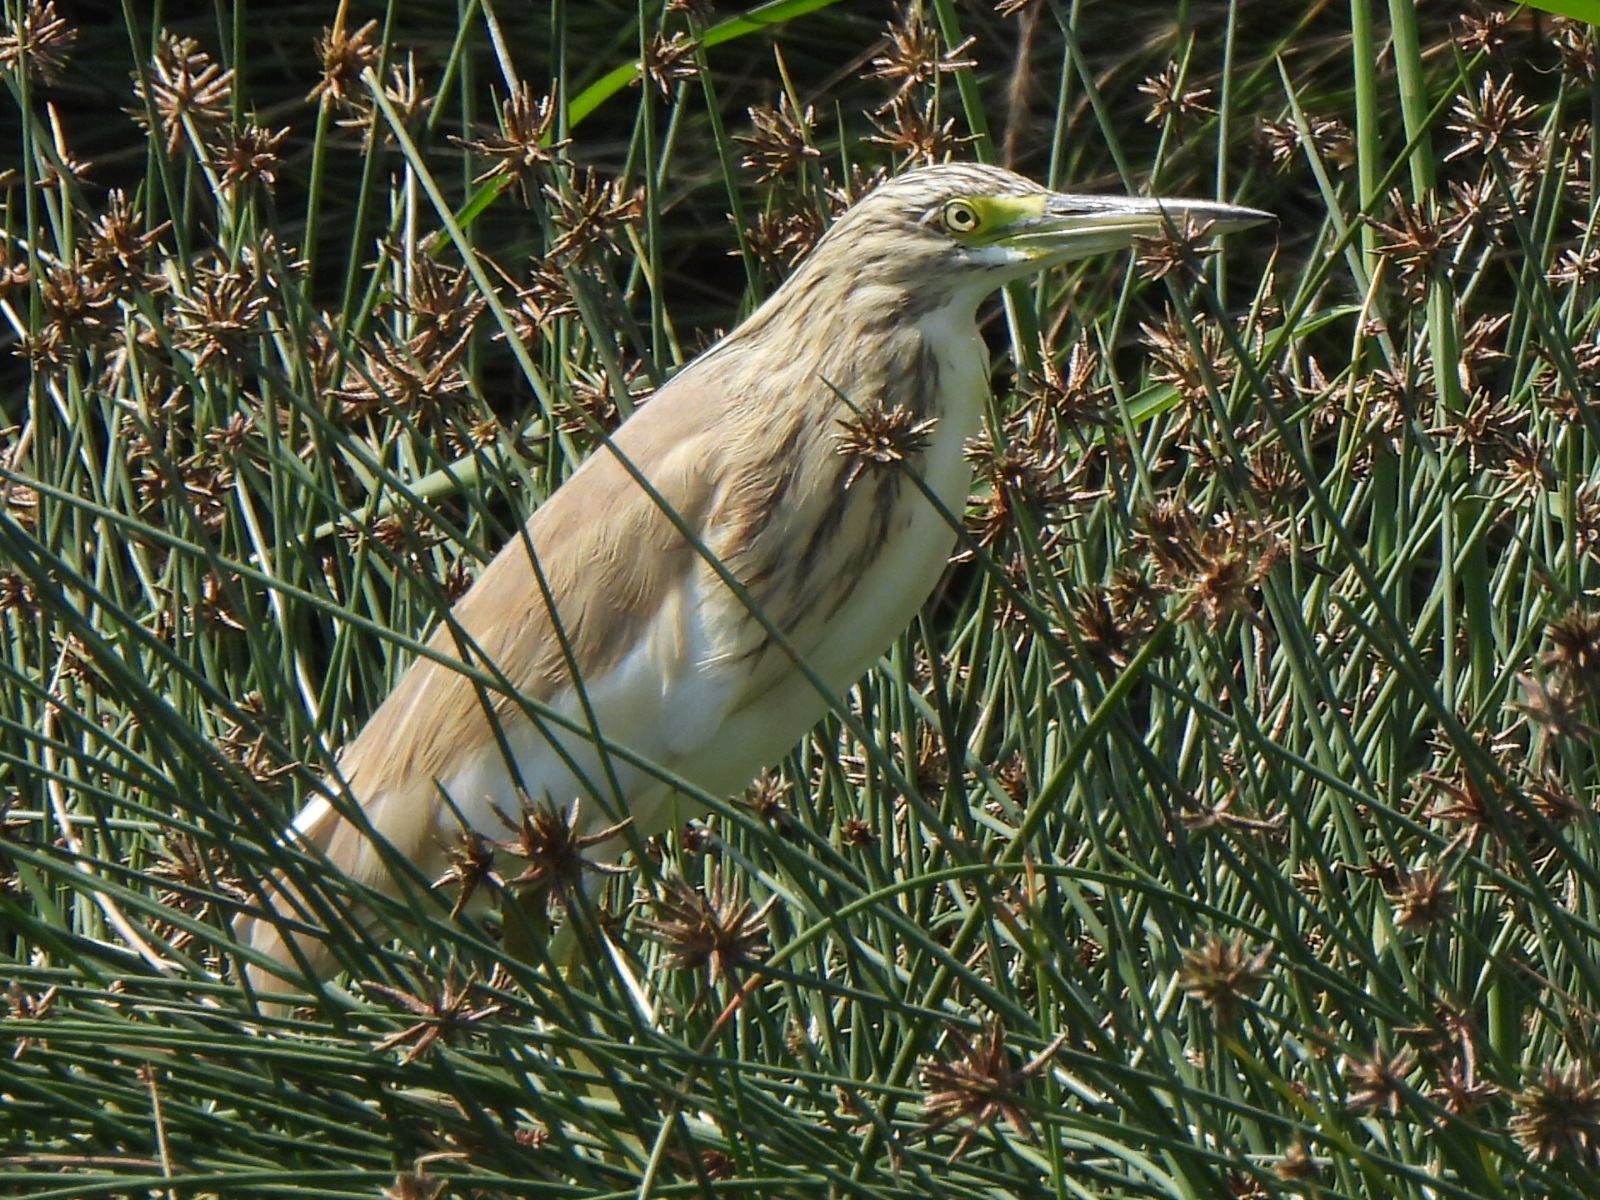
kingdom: Animalia
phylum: Chordata
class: Aves
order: Pelecaniformes
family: Ardeidae
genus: Ardeola
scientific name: Ardeola ralloides
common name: Squacco heron
